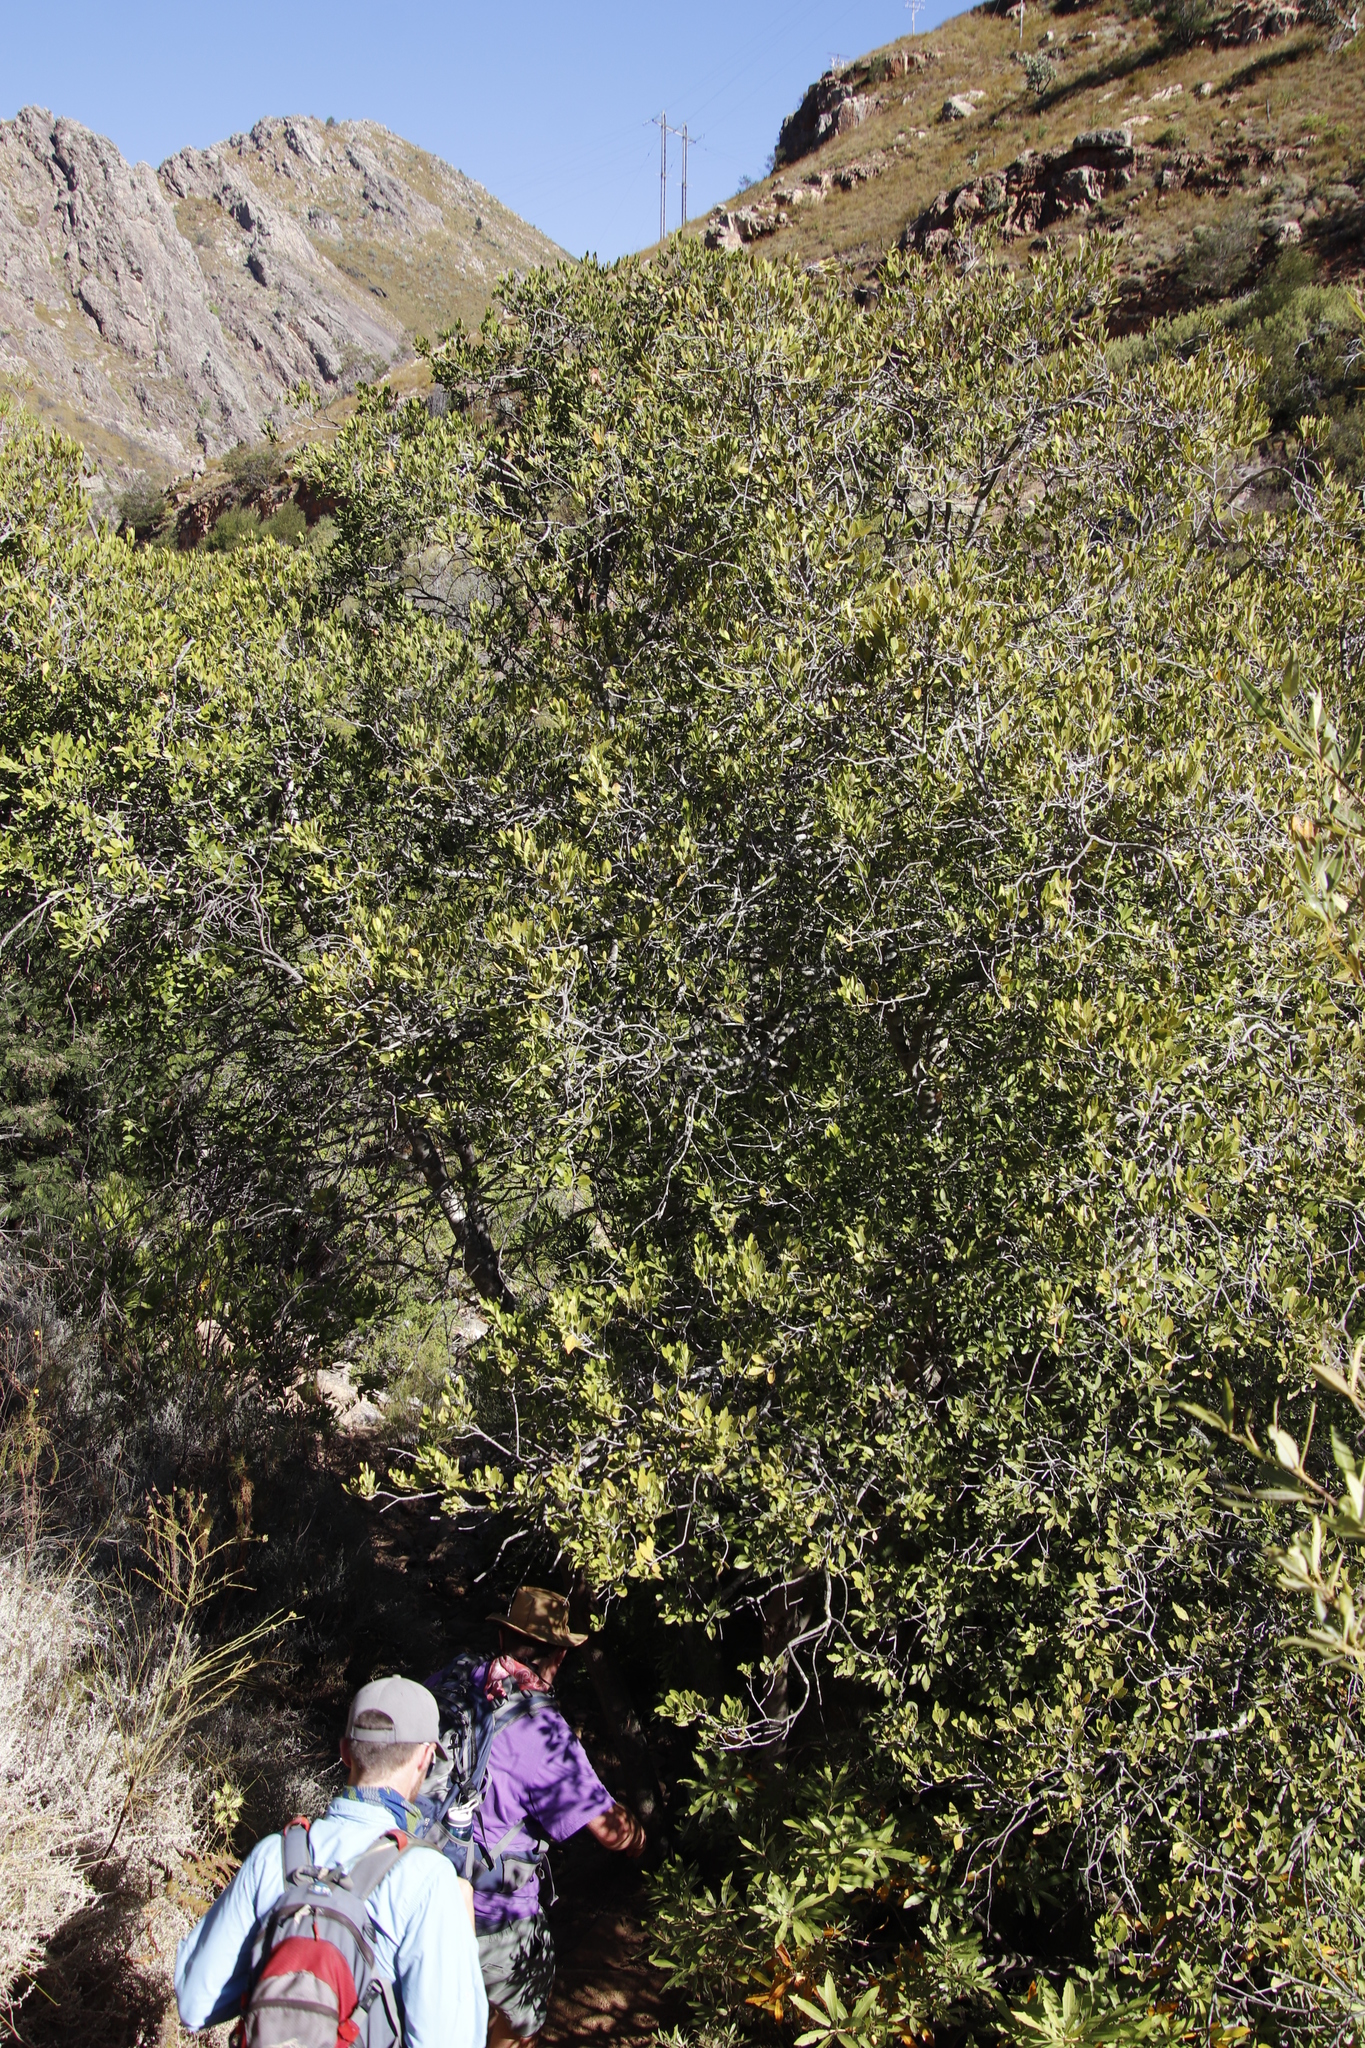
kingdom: Plantae
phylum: Tracheophyta
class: Magnoliopsida
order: Celastrales
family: Celastraceae
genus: Elaeodendron
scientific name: Elaeodendron schinoides
